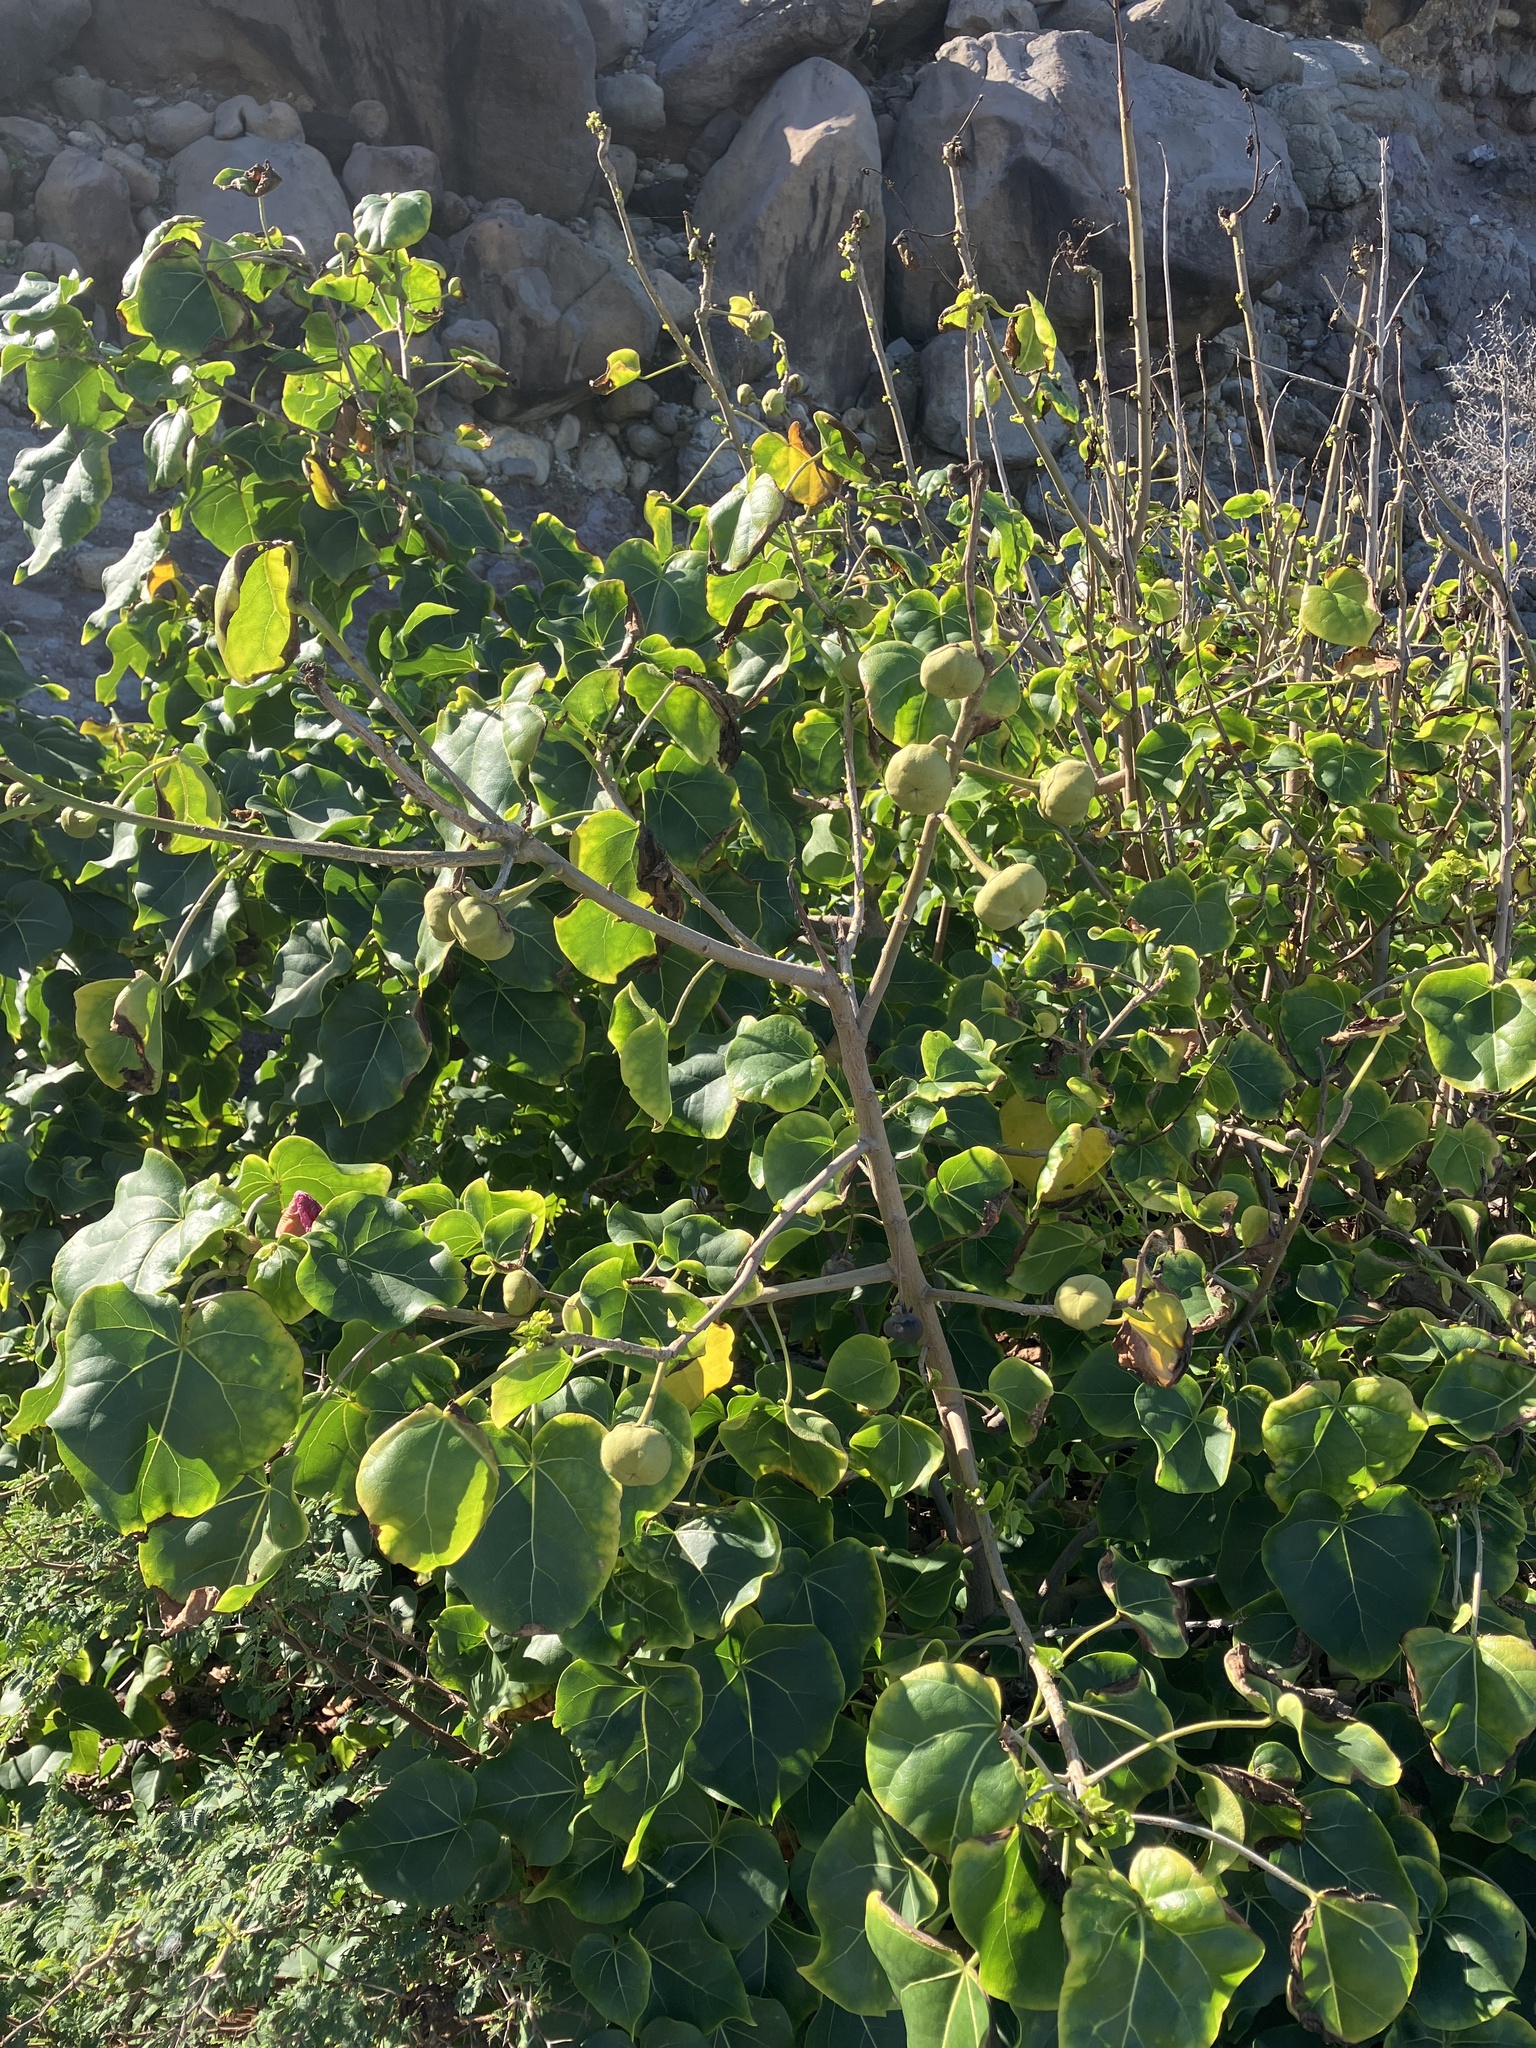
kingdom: Plantae
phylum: Tracheophyta
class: Magnoliopsida
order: Malvales
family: Malvaceae
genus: Thespesia
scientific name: Thespesia populnea
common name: Seaside mahoe
